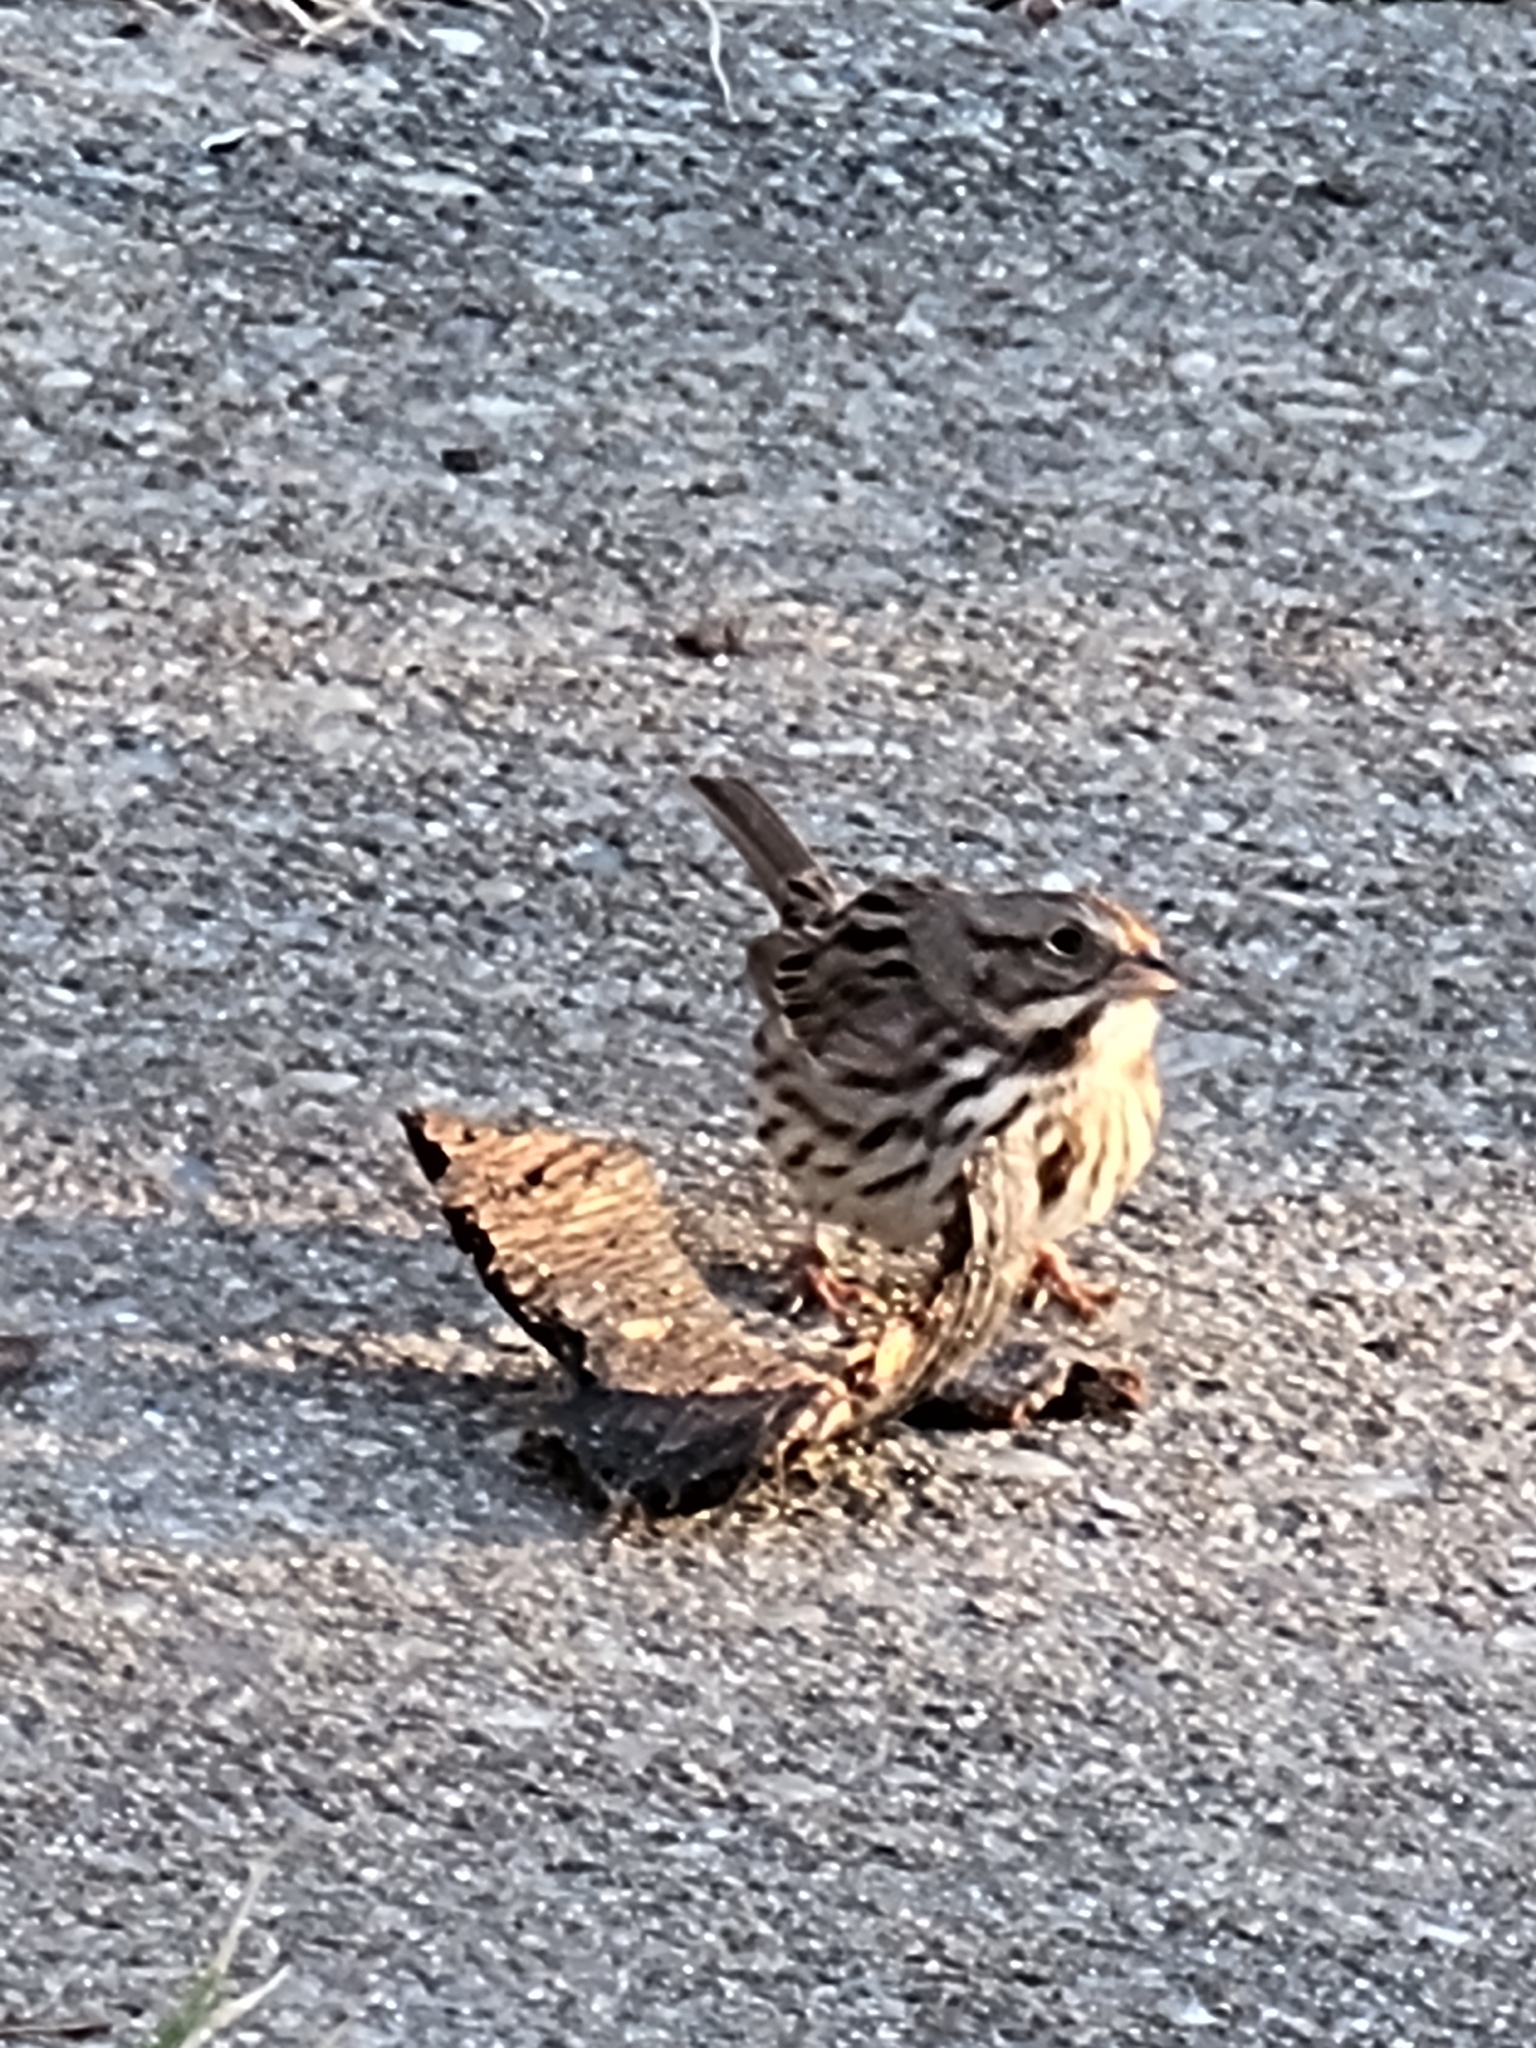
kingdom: Animalia
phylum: Chordata
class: Aves
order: Passeriformes
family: Passerellidae
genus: Melospiza
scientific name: Melospiza melodia
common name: Song sparrow
